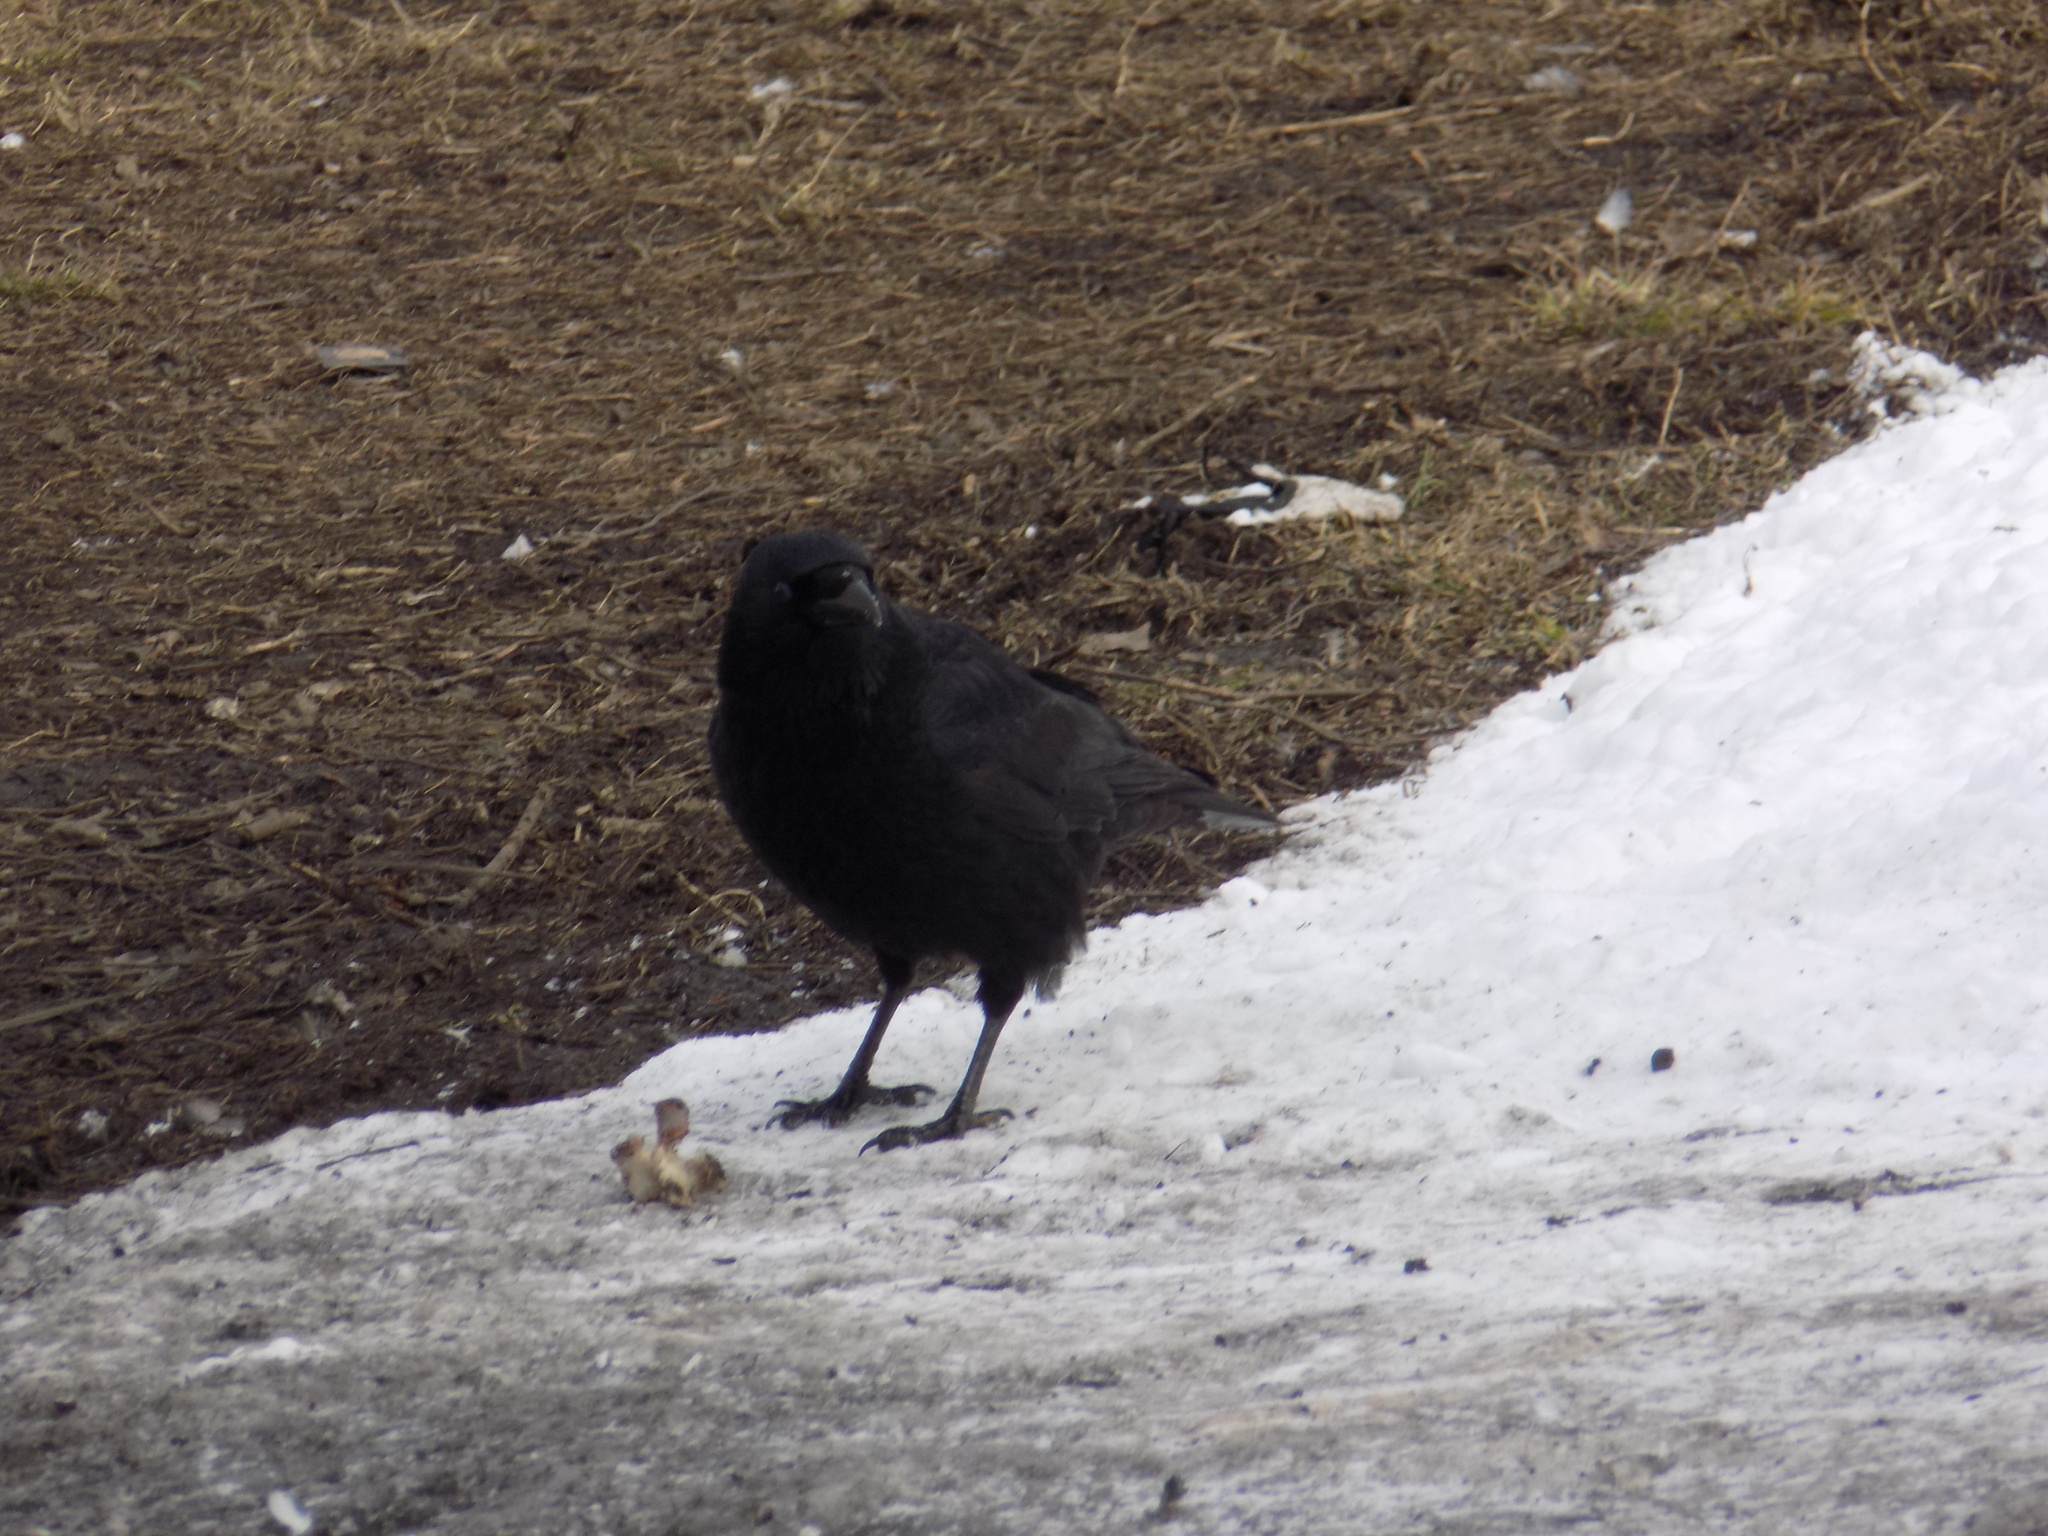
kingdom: Animalia
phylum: Chordata
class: Aves
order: Passeriformes
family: Corvidae
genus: Corvus
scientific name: Corvus corone
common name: Carrion crow
